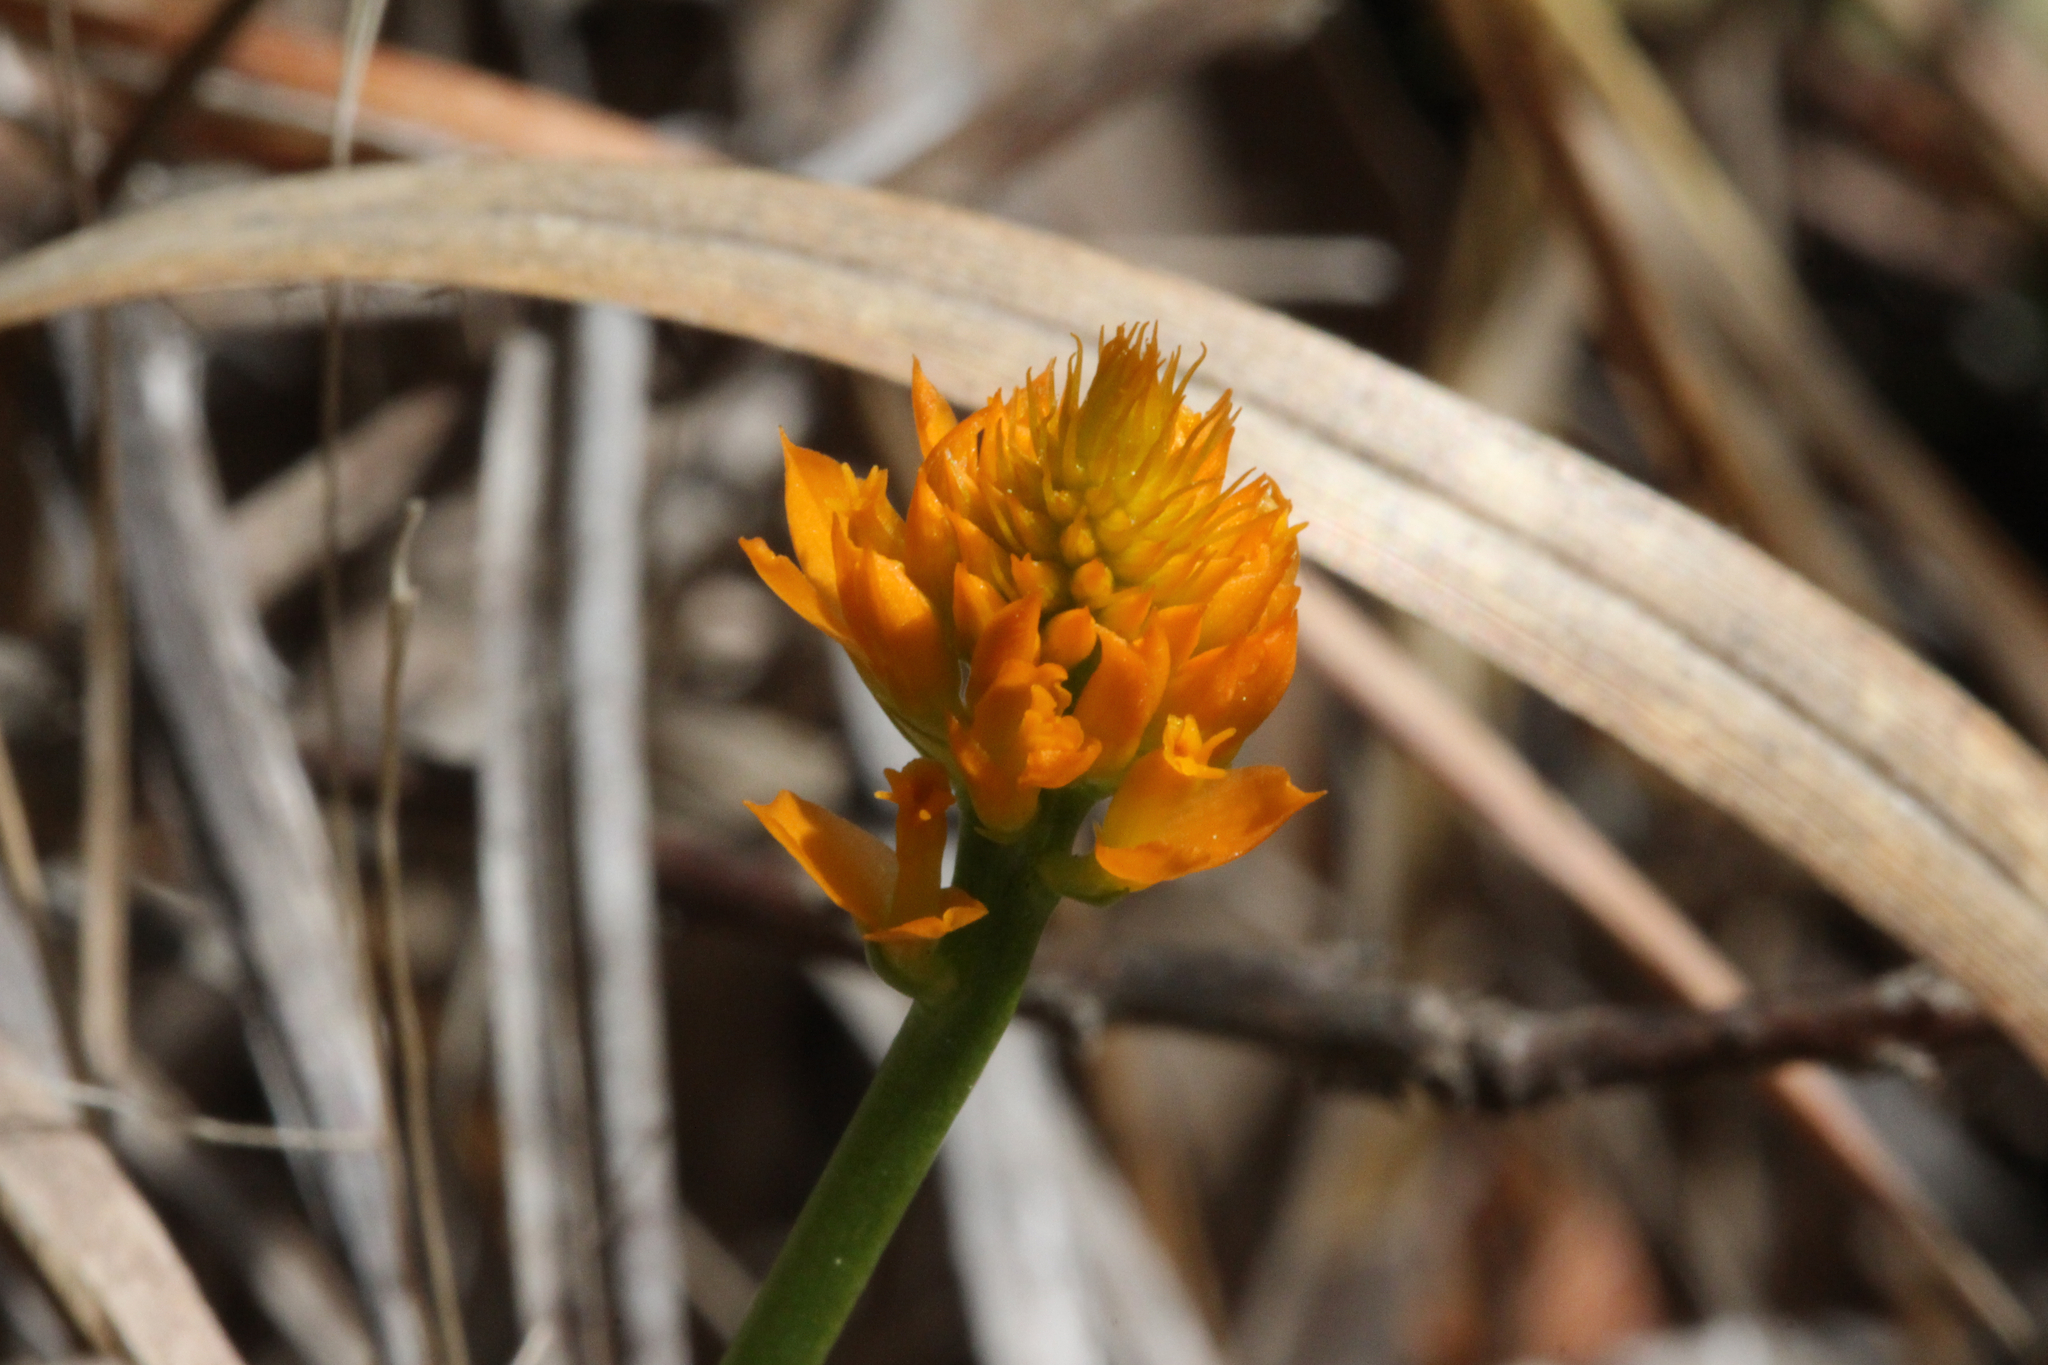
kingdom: Plantae
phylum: Tracheophyta
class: Magnoliopsida
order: Fabales
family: Polygalaceae
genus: Polygala
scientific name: Polygala lutea
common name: Orange milkwort
